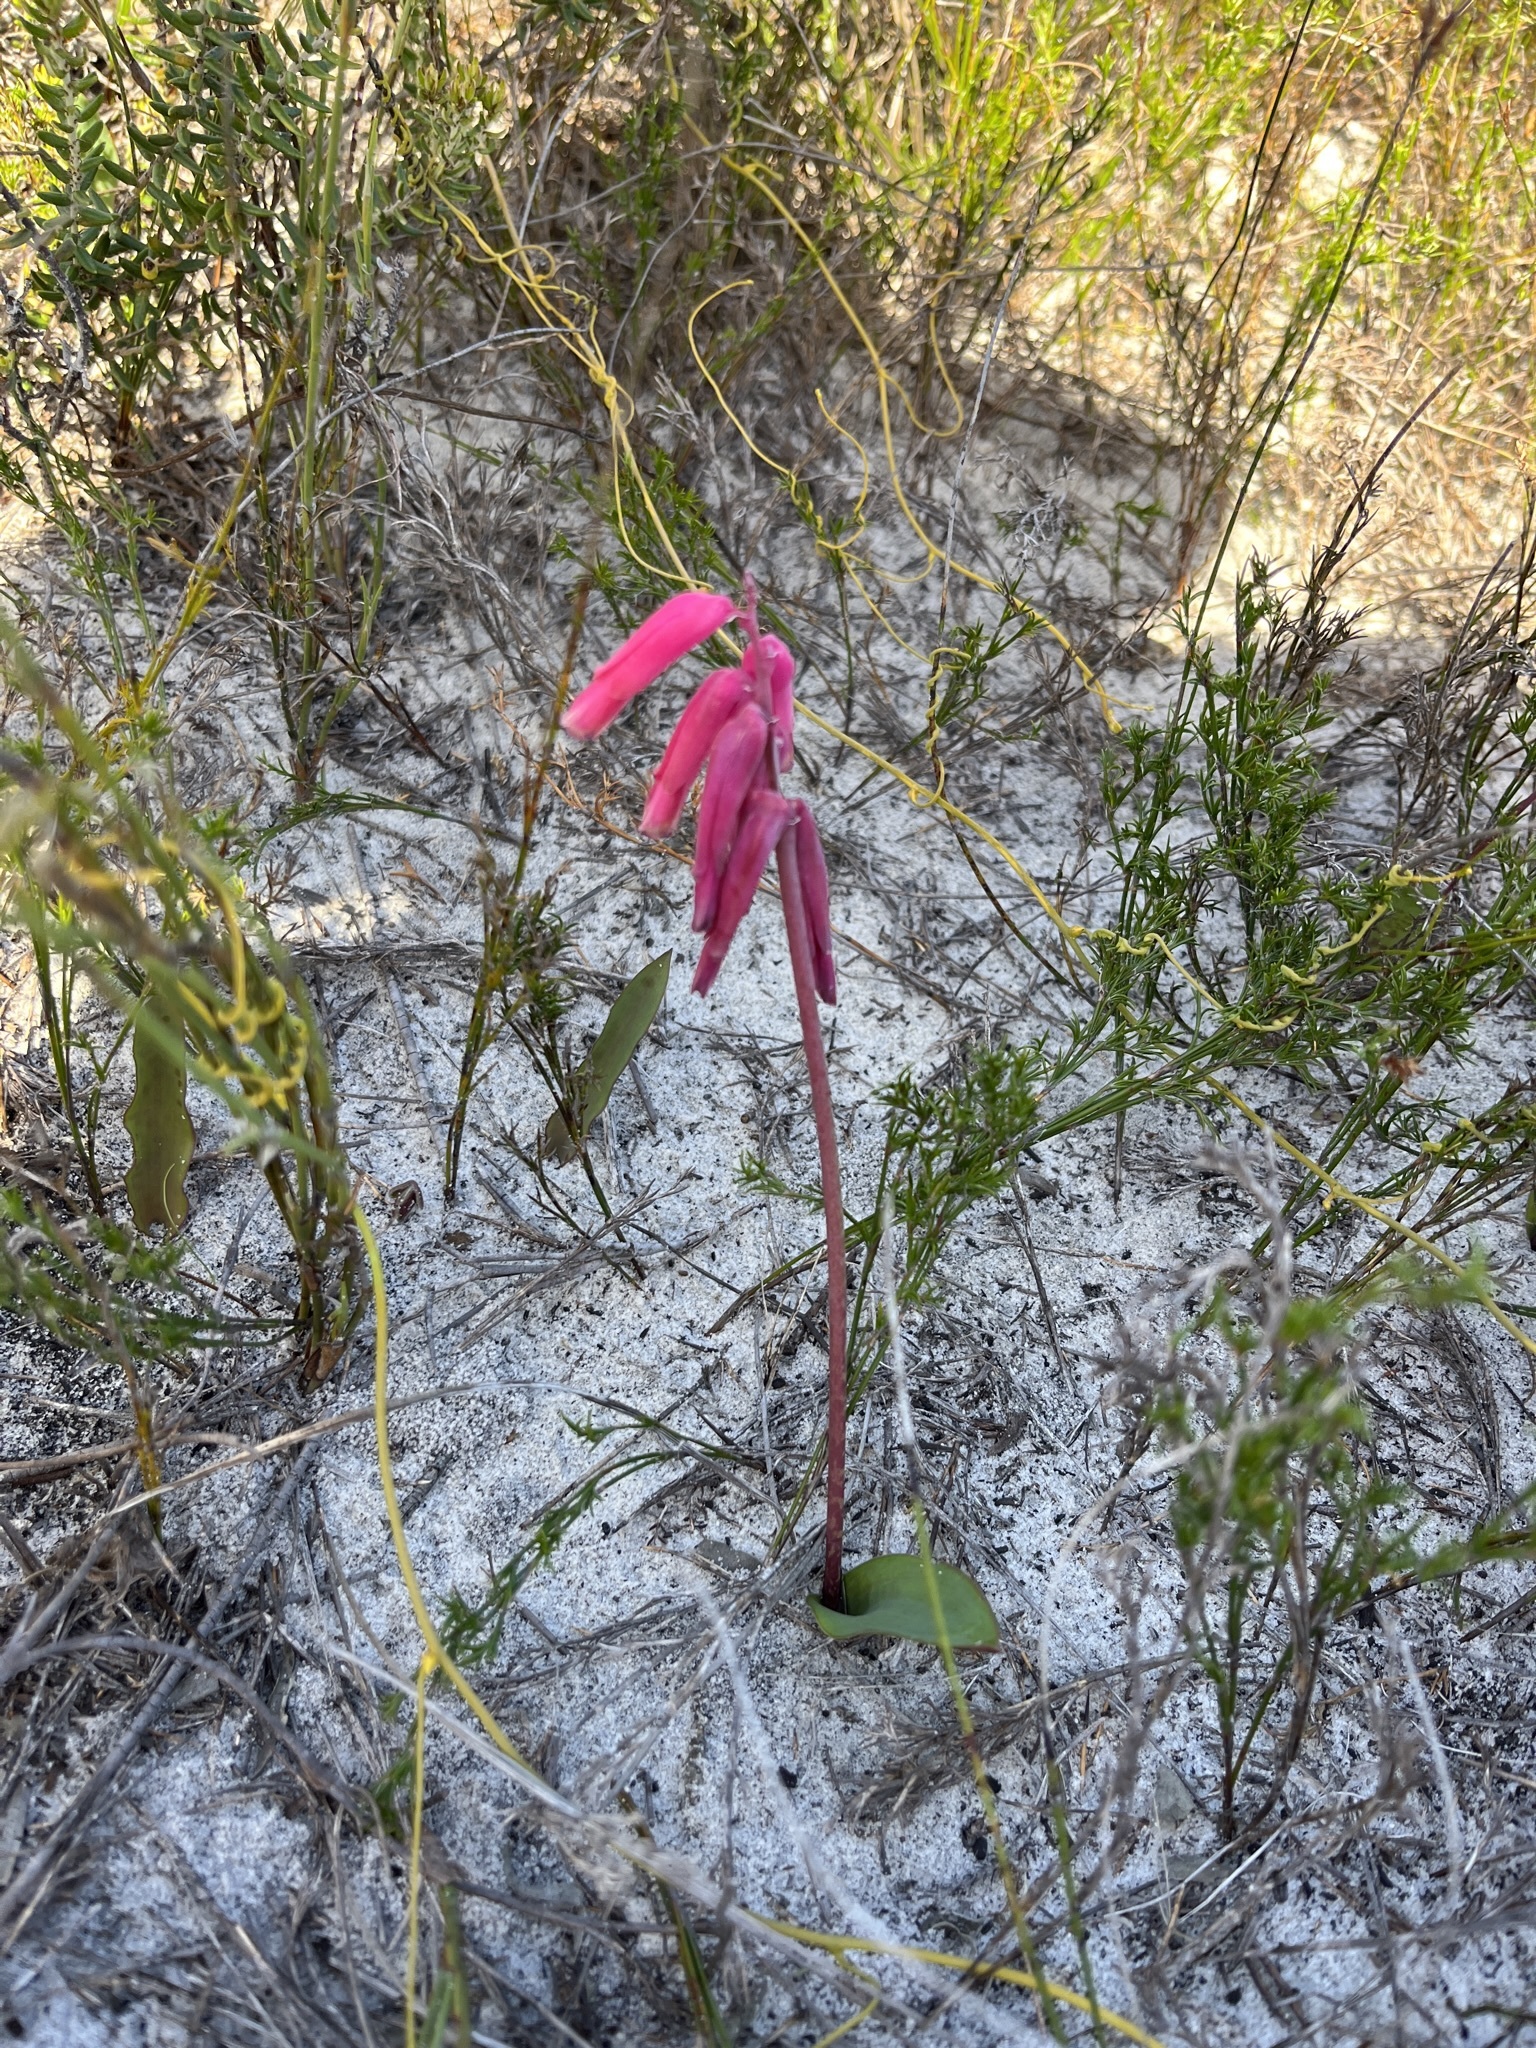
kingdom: Plantae
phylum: Tracheophyta
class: Liliopsida
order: Asparagales
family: Asparagaceae
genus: Lachenalia
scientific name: Lachenalia punctata
